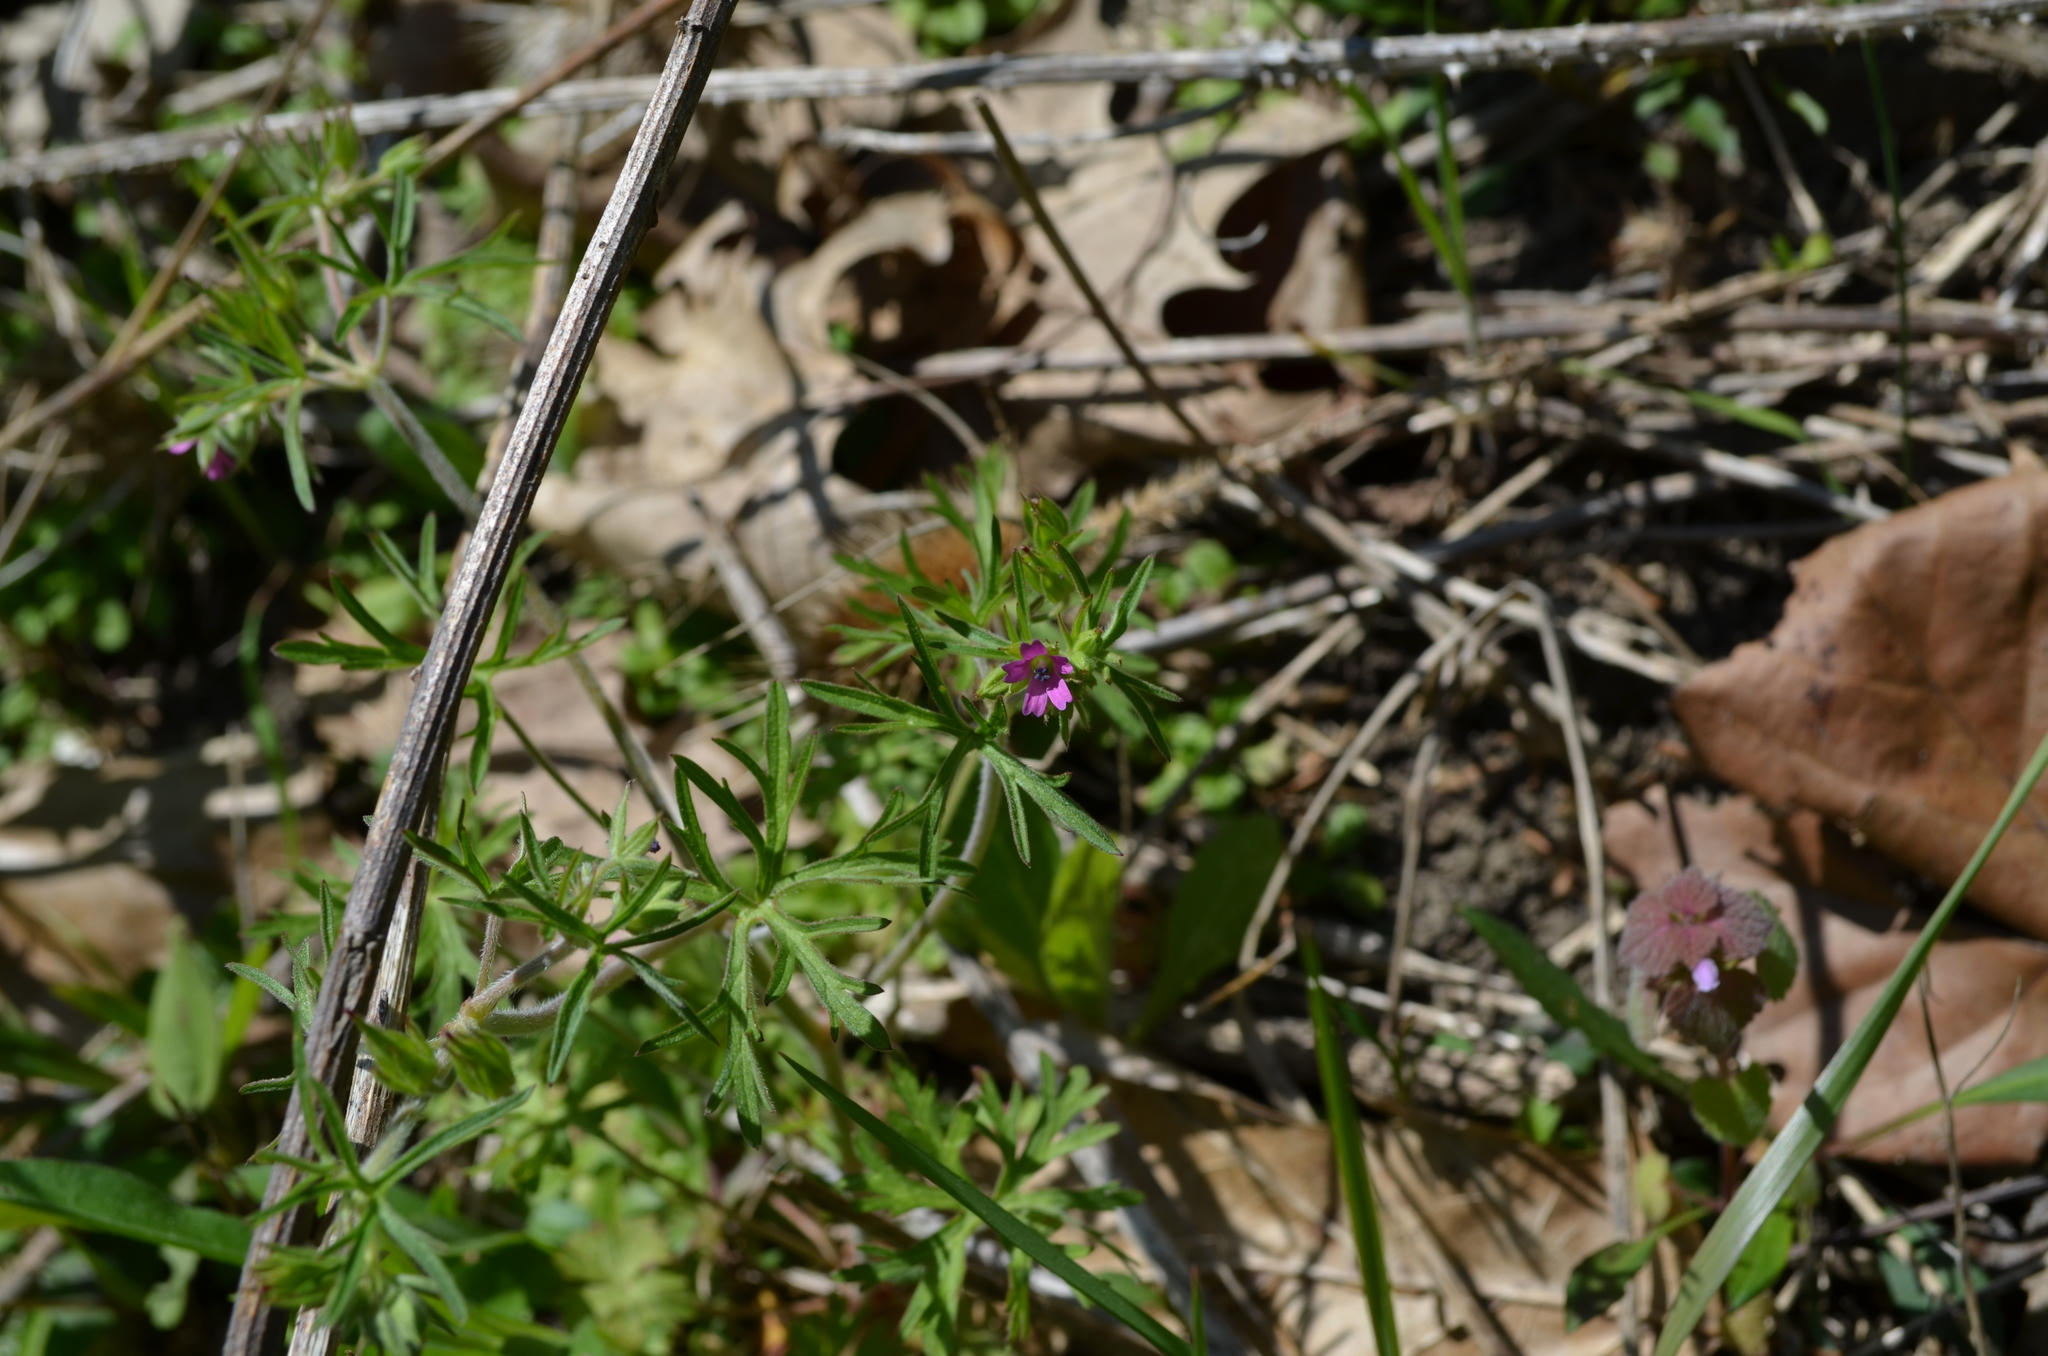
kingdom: Plantae
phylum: Tracheophyta
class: Magnoliopsida
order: Geraniales
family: Geraniaceae
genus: Geranium
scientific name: Geranium dissectum
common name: Cut-leaved crane's-bill
